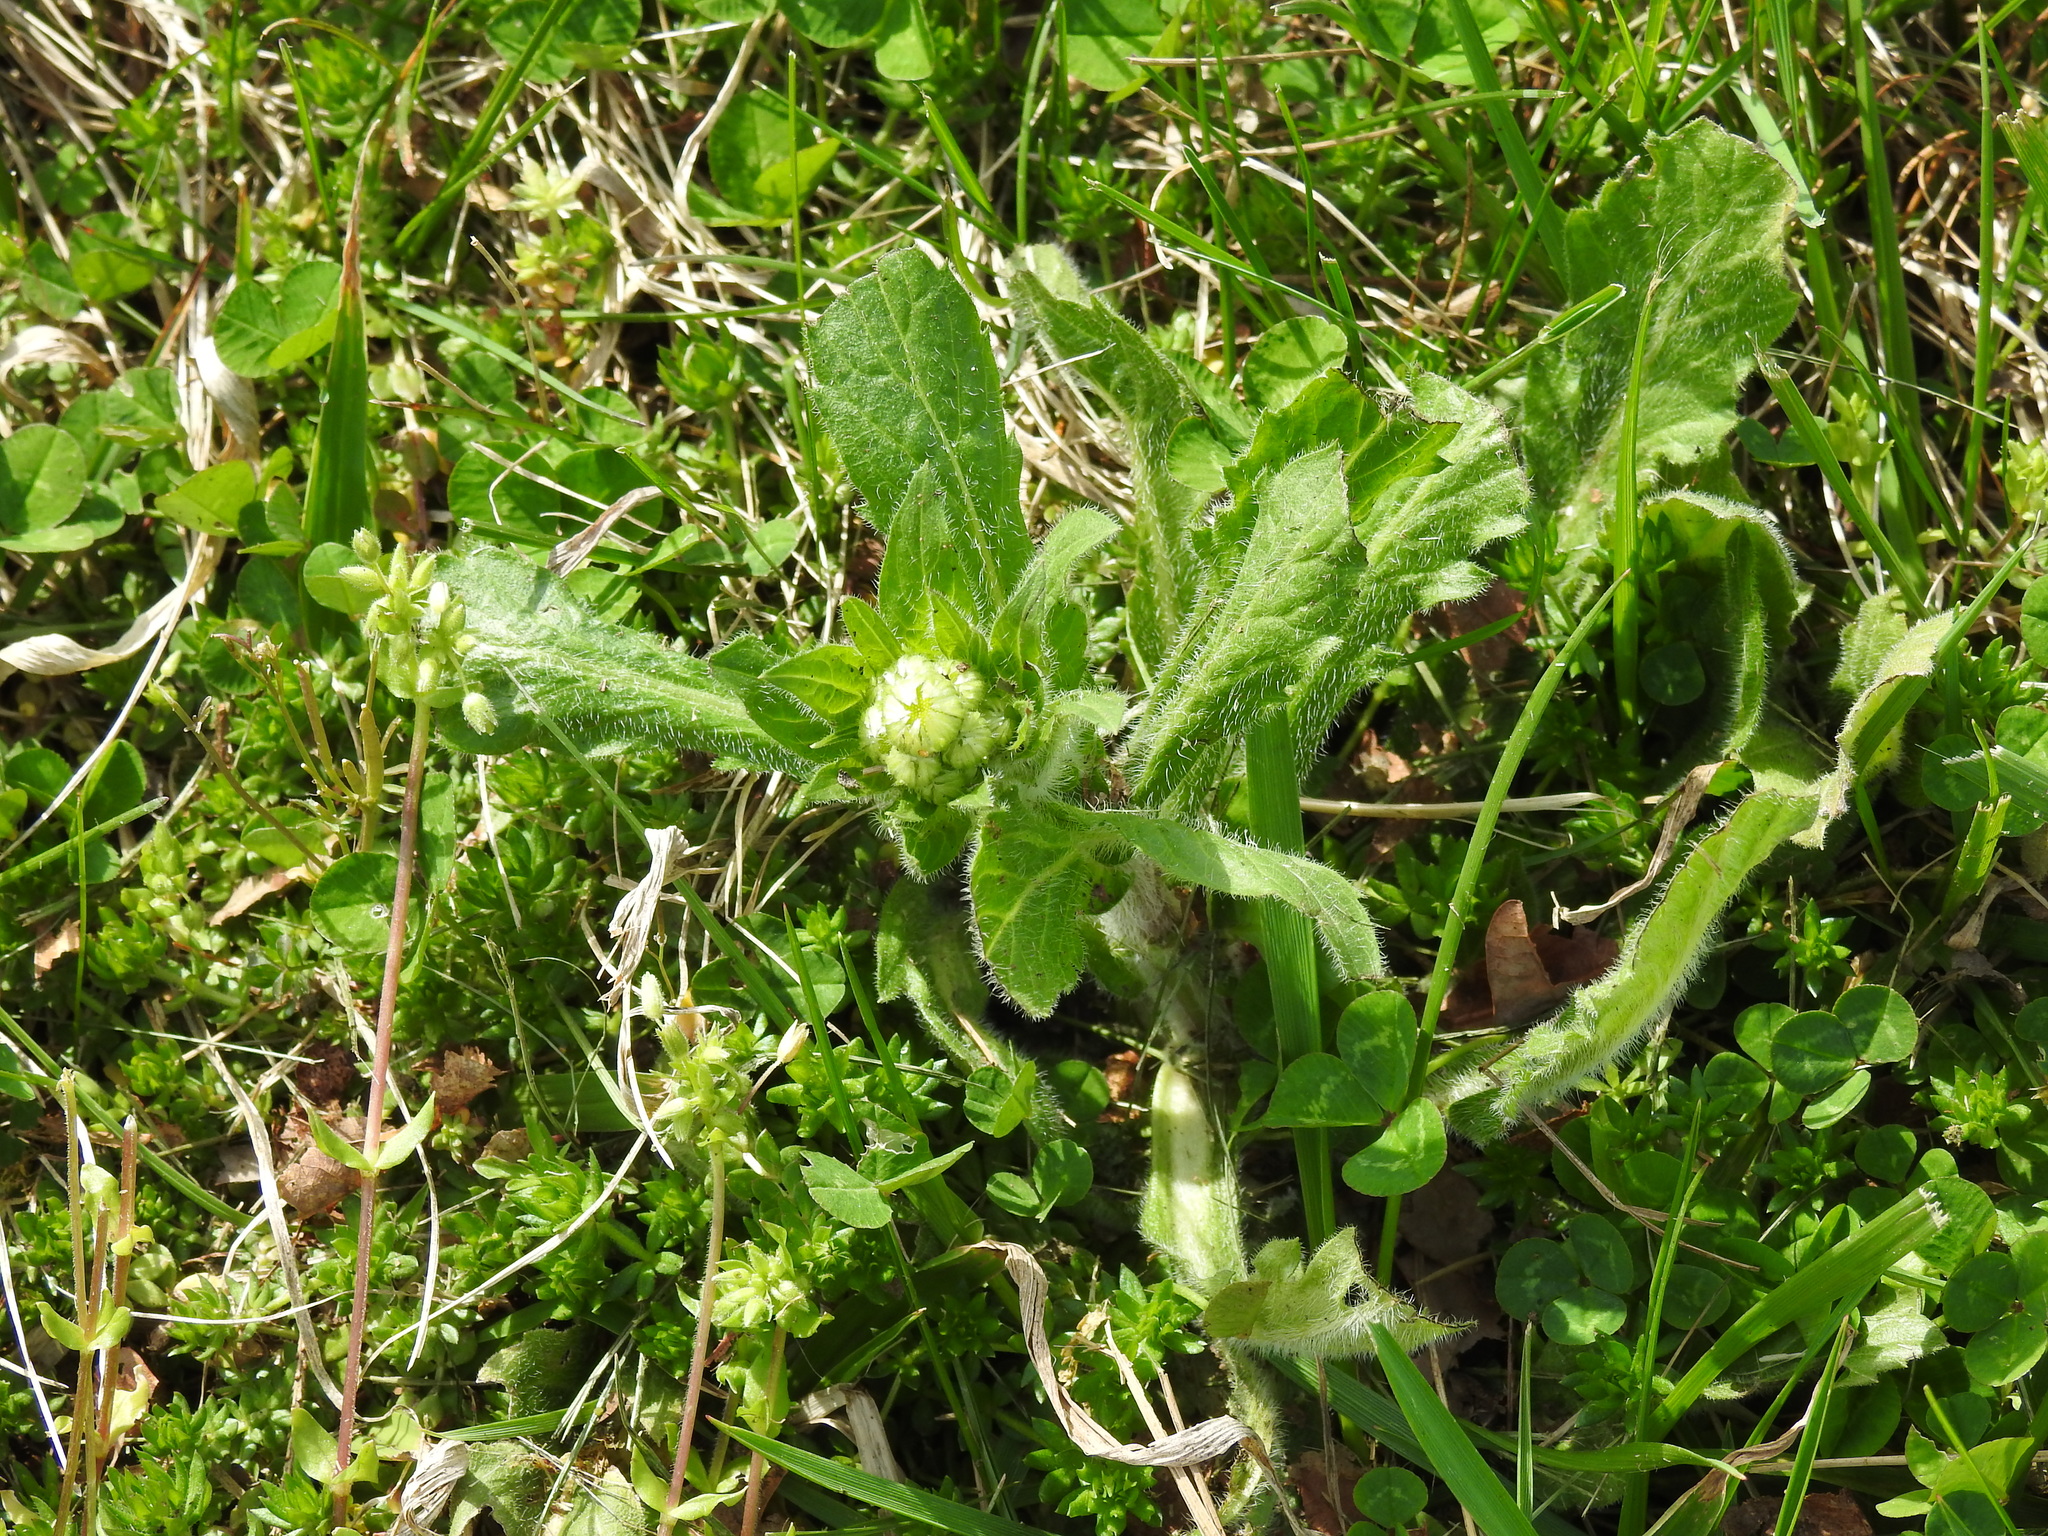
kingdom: Plantae
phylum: Tracheophyta
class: Magnoliopsida
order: Asterales
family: Asteraceae
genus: Erigeron
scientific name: Erigeron philadelphicus
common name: Robin's-plantain
